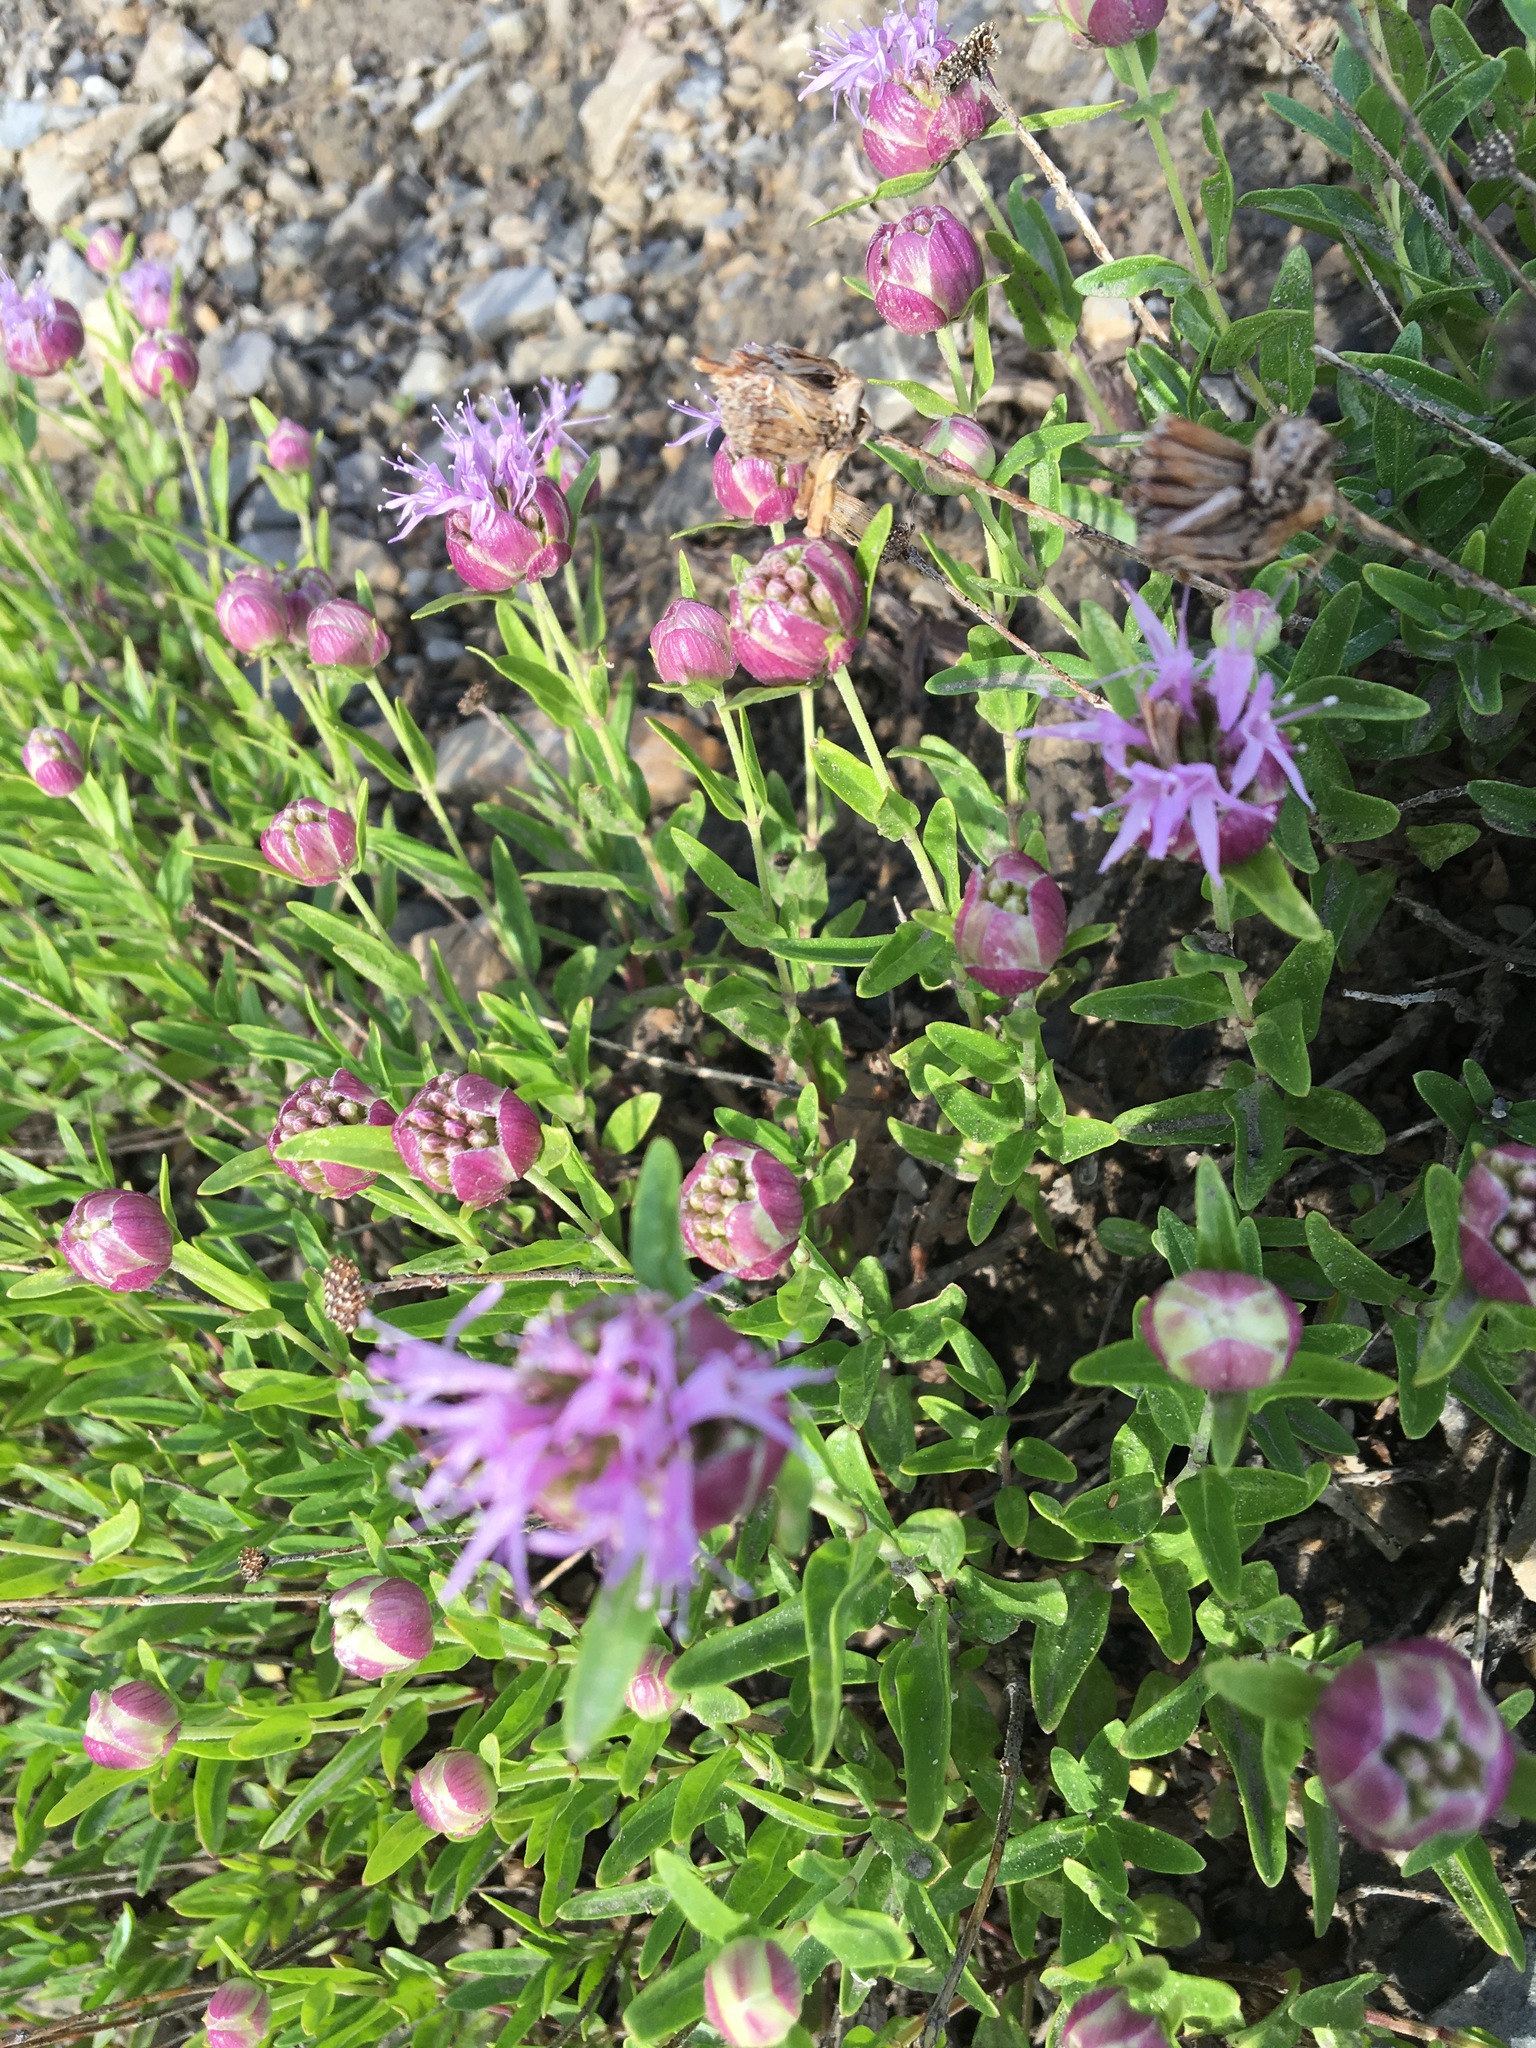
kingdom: Plantae
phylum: Tracheophyta
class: Magnoliopsida
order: Lamiales
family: Lamiaceae
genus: Monardella
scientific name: Monardella odoratissima
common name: Pacific monardella
